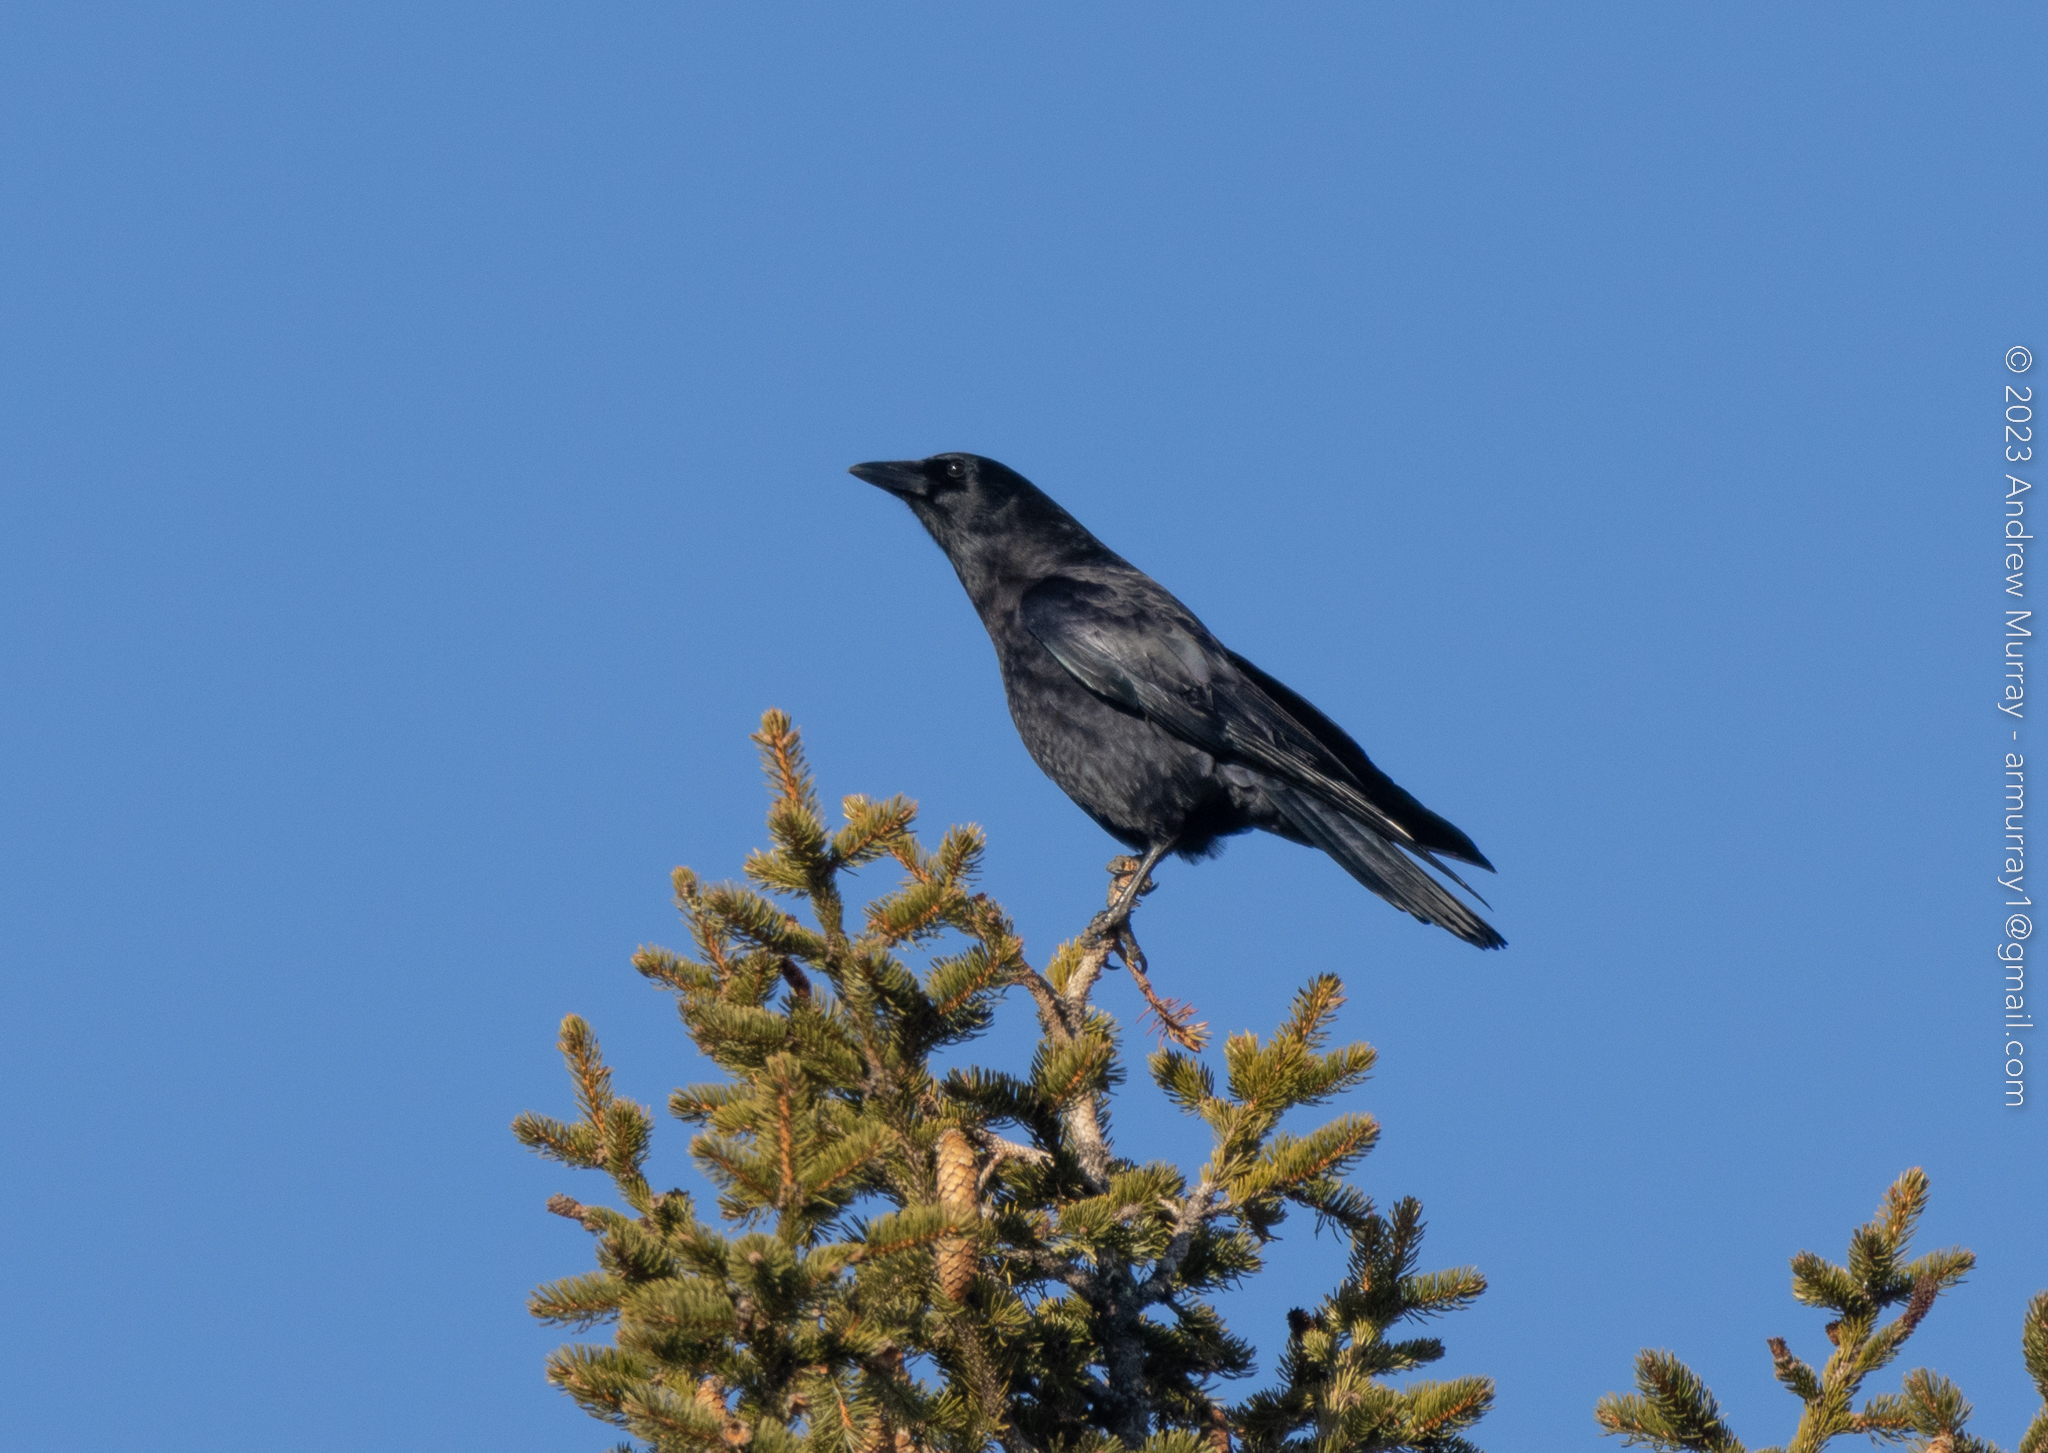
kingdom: Animalia
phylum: Chordata
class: Aves
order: Passeriformes
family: Corvidae
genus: Corvus
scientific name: Corvus brachyrhynchos
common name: American crow
